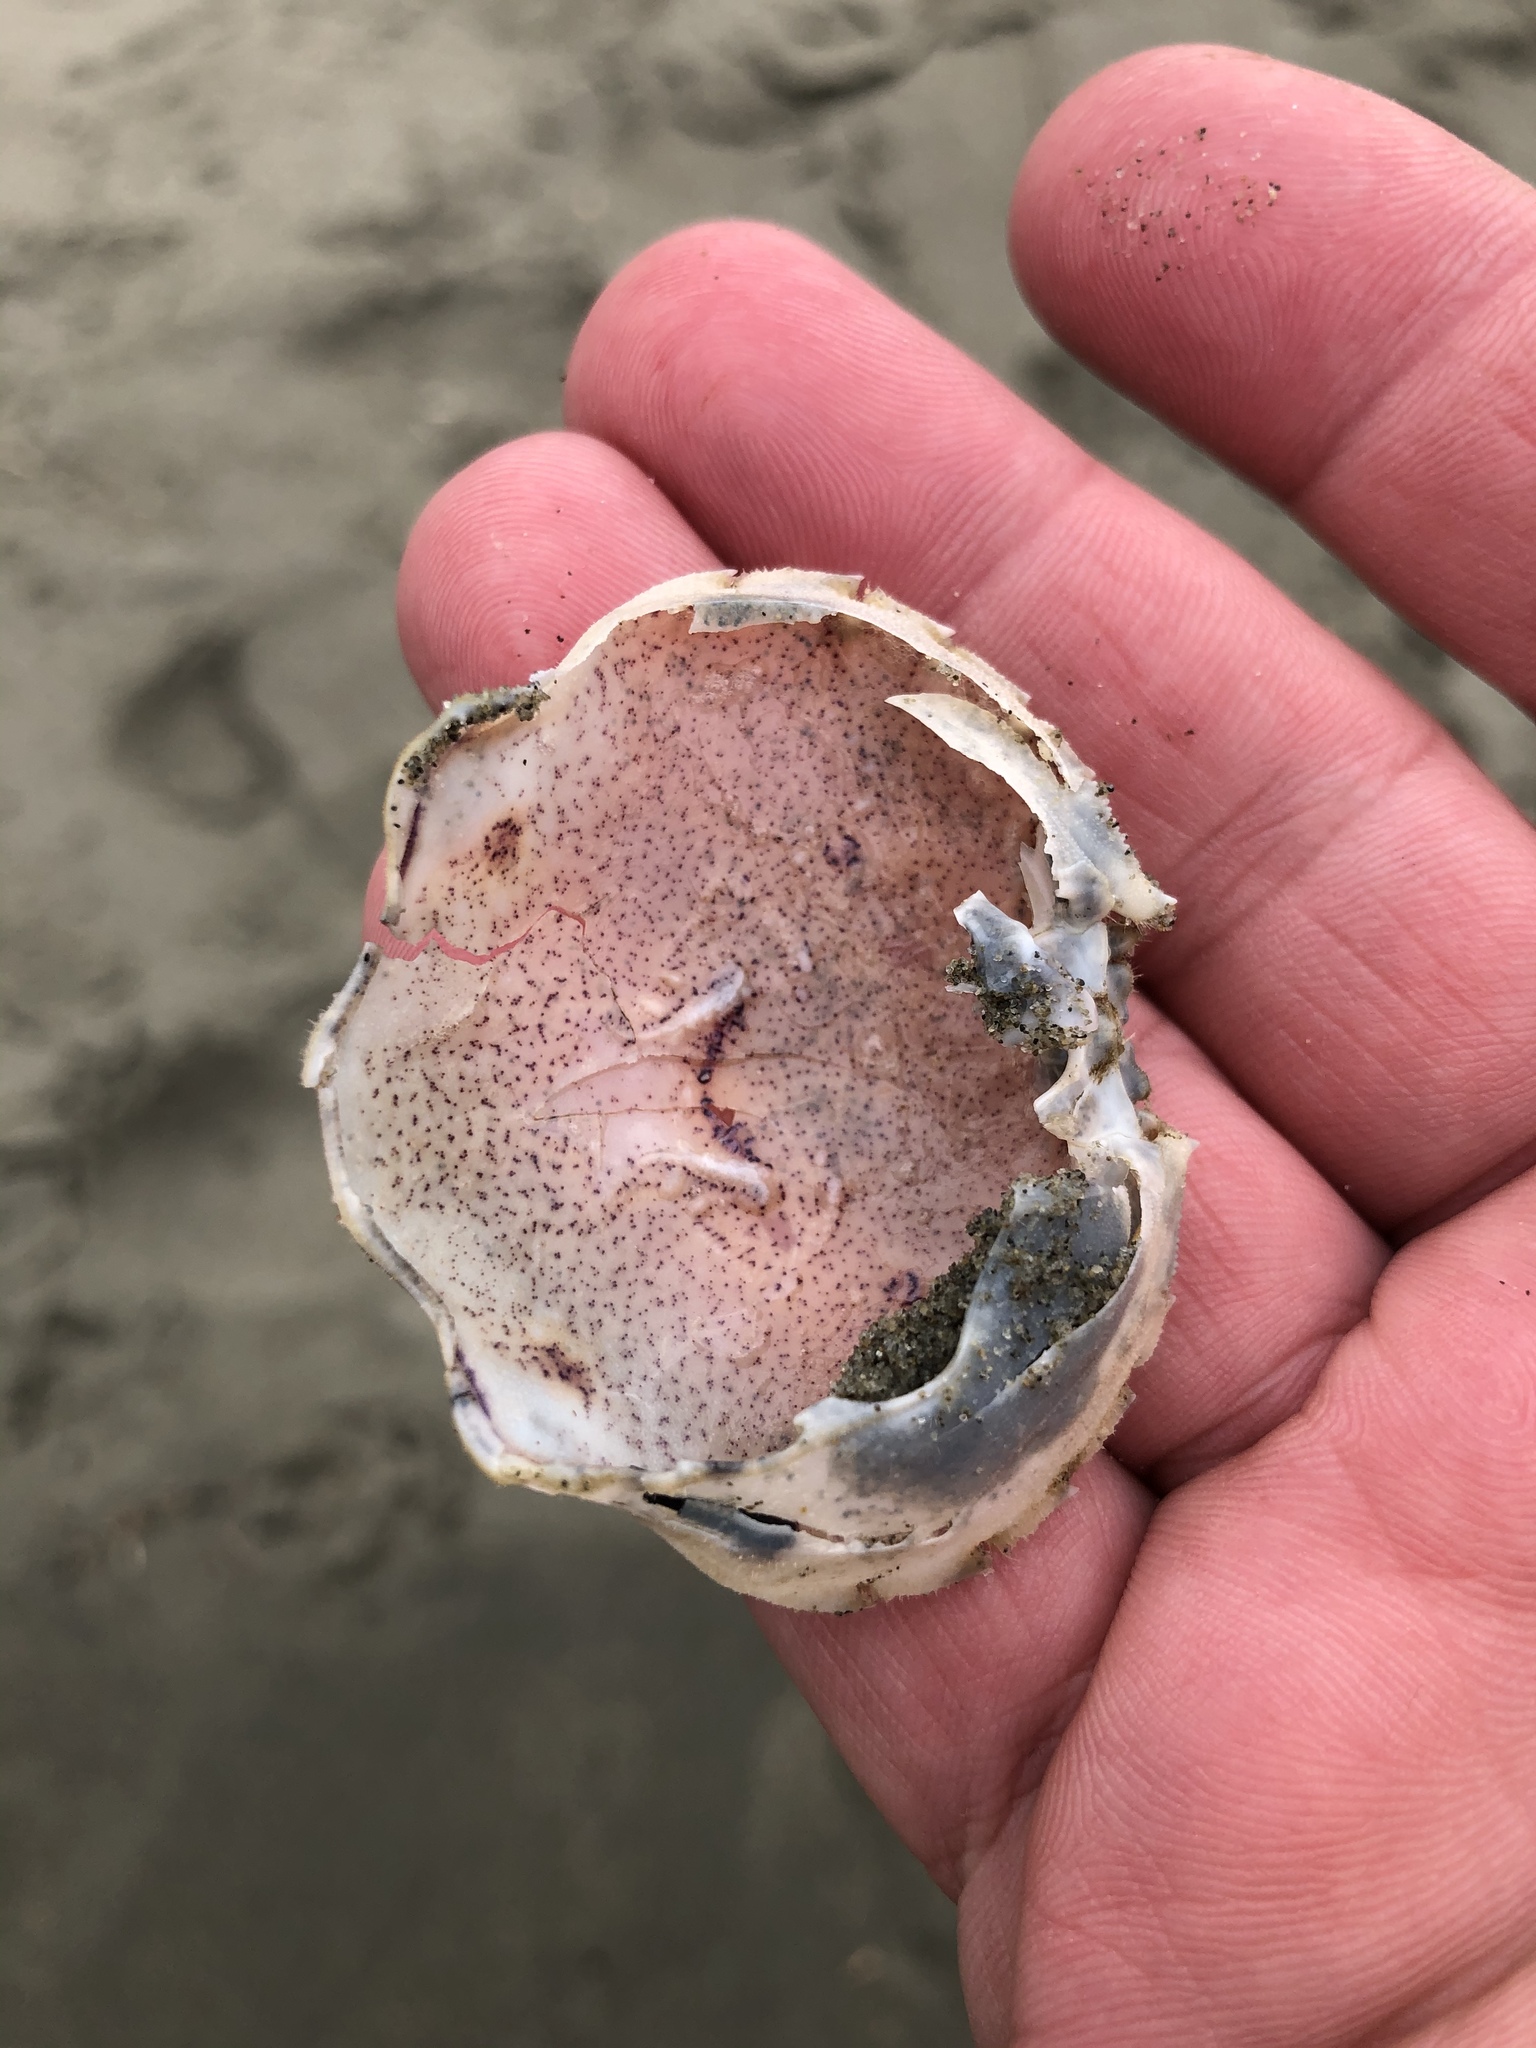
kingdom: Animalia
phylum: Arthropoda
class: Malacostraca
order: Decapoda
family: Ovalipidae
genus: Ovalipes
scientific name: Ovalipes catharus
